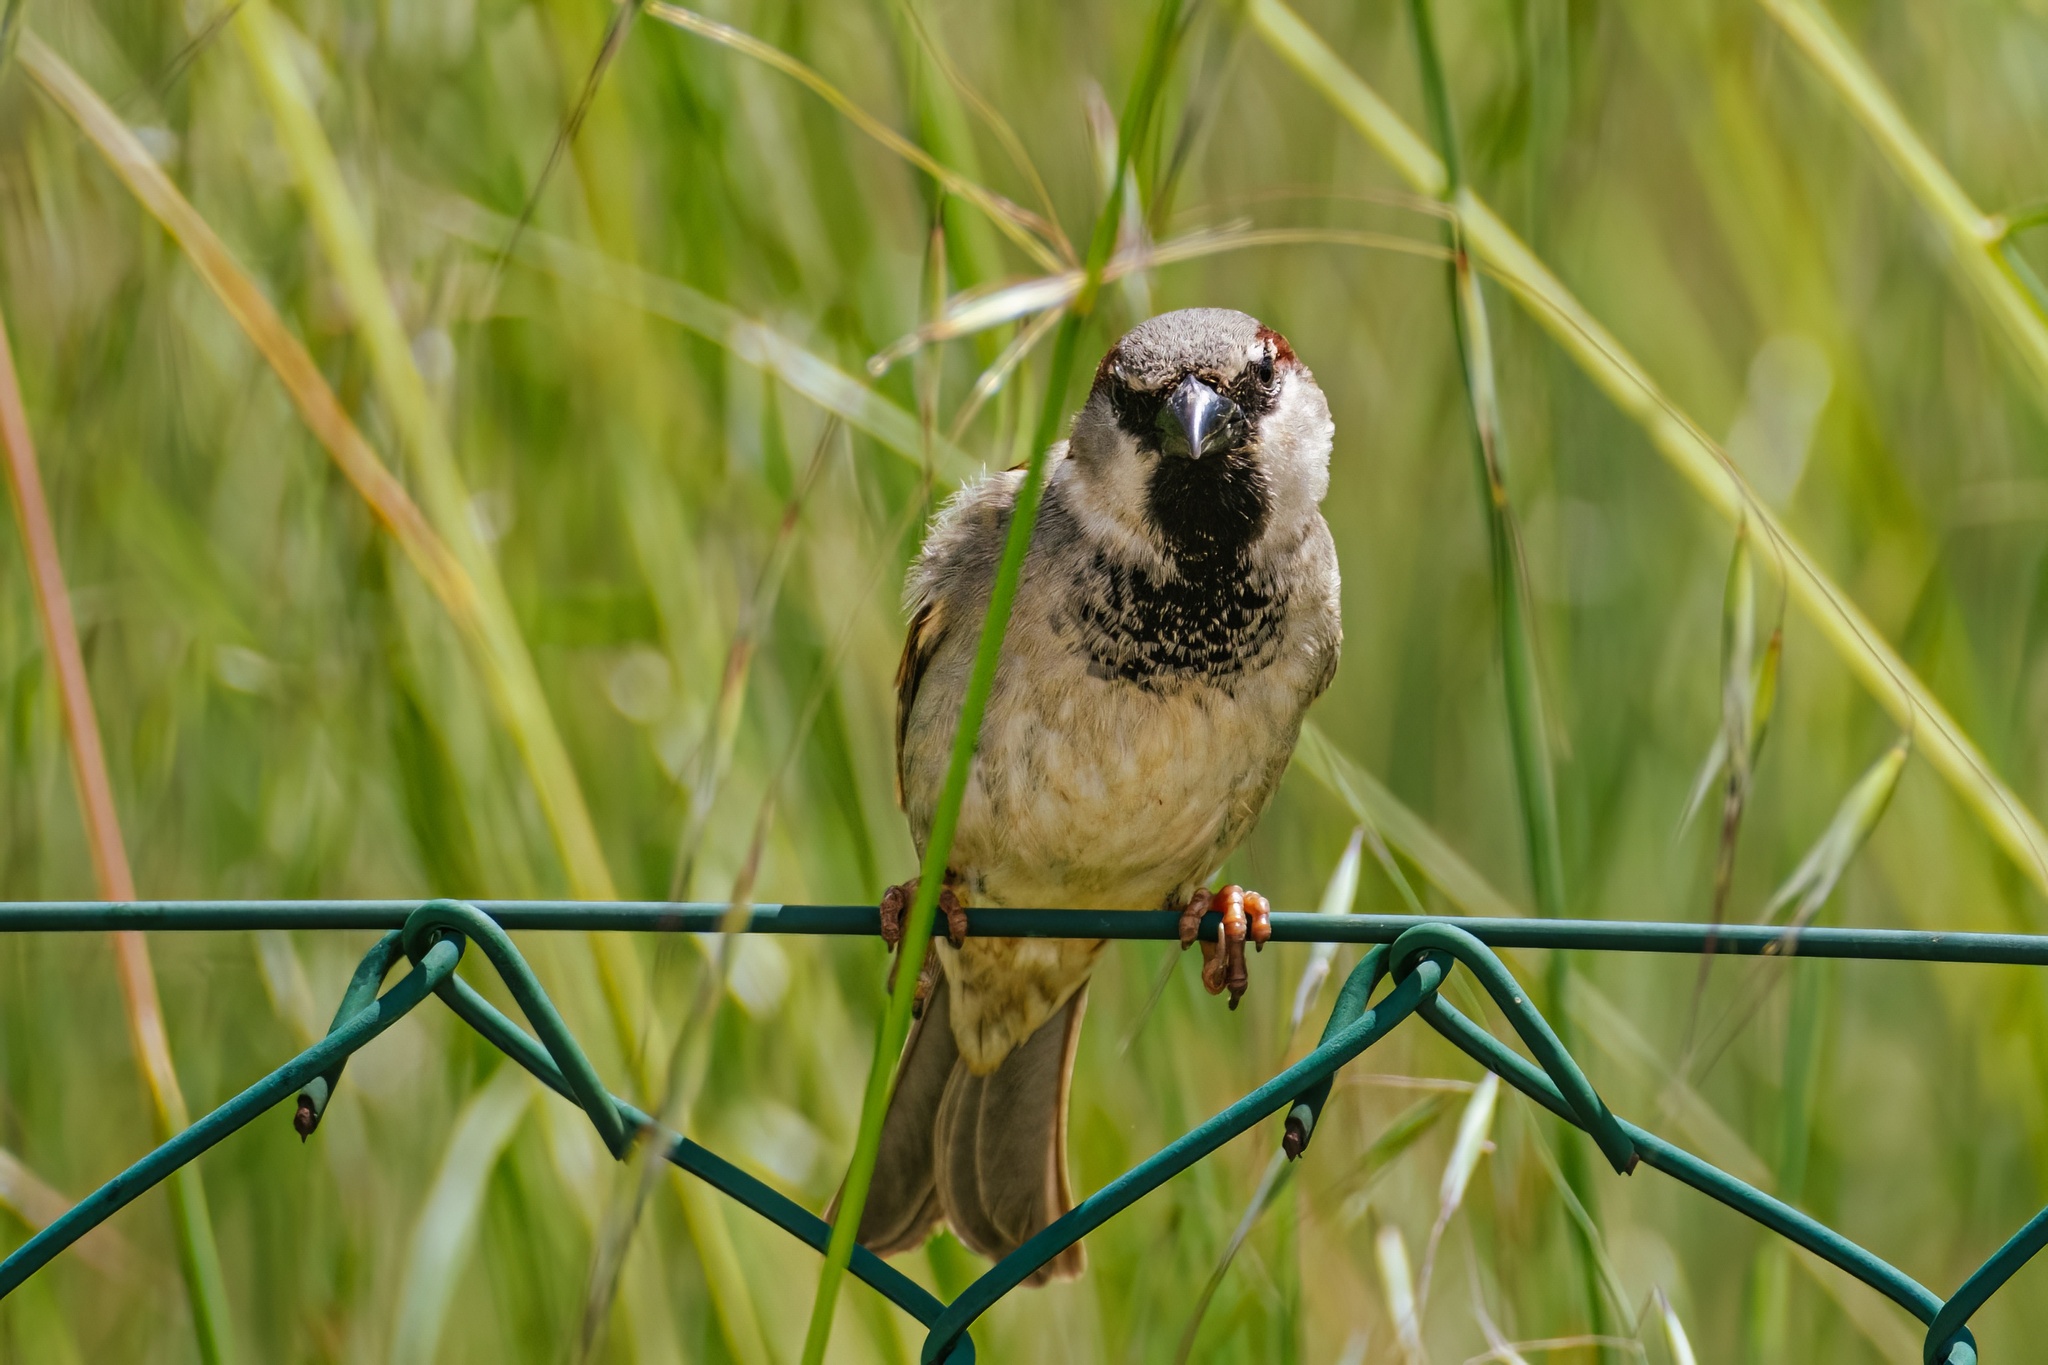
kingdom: Animalia
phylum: Chordata
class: Aves
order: Passeriformes
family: Passeridae
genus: Passer
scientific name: Passer domesticus
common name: House sparrow
